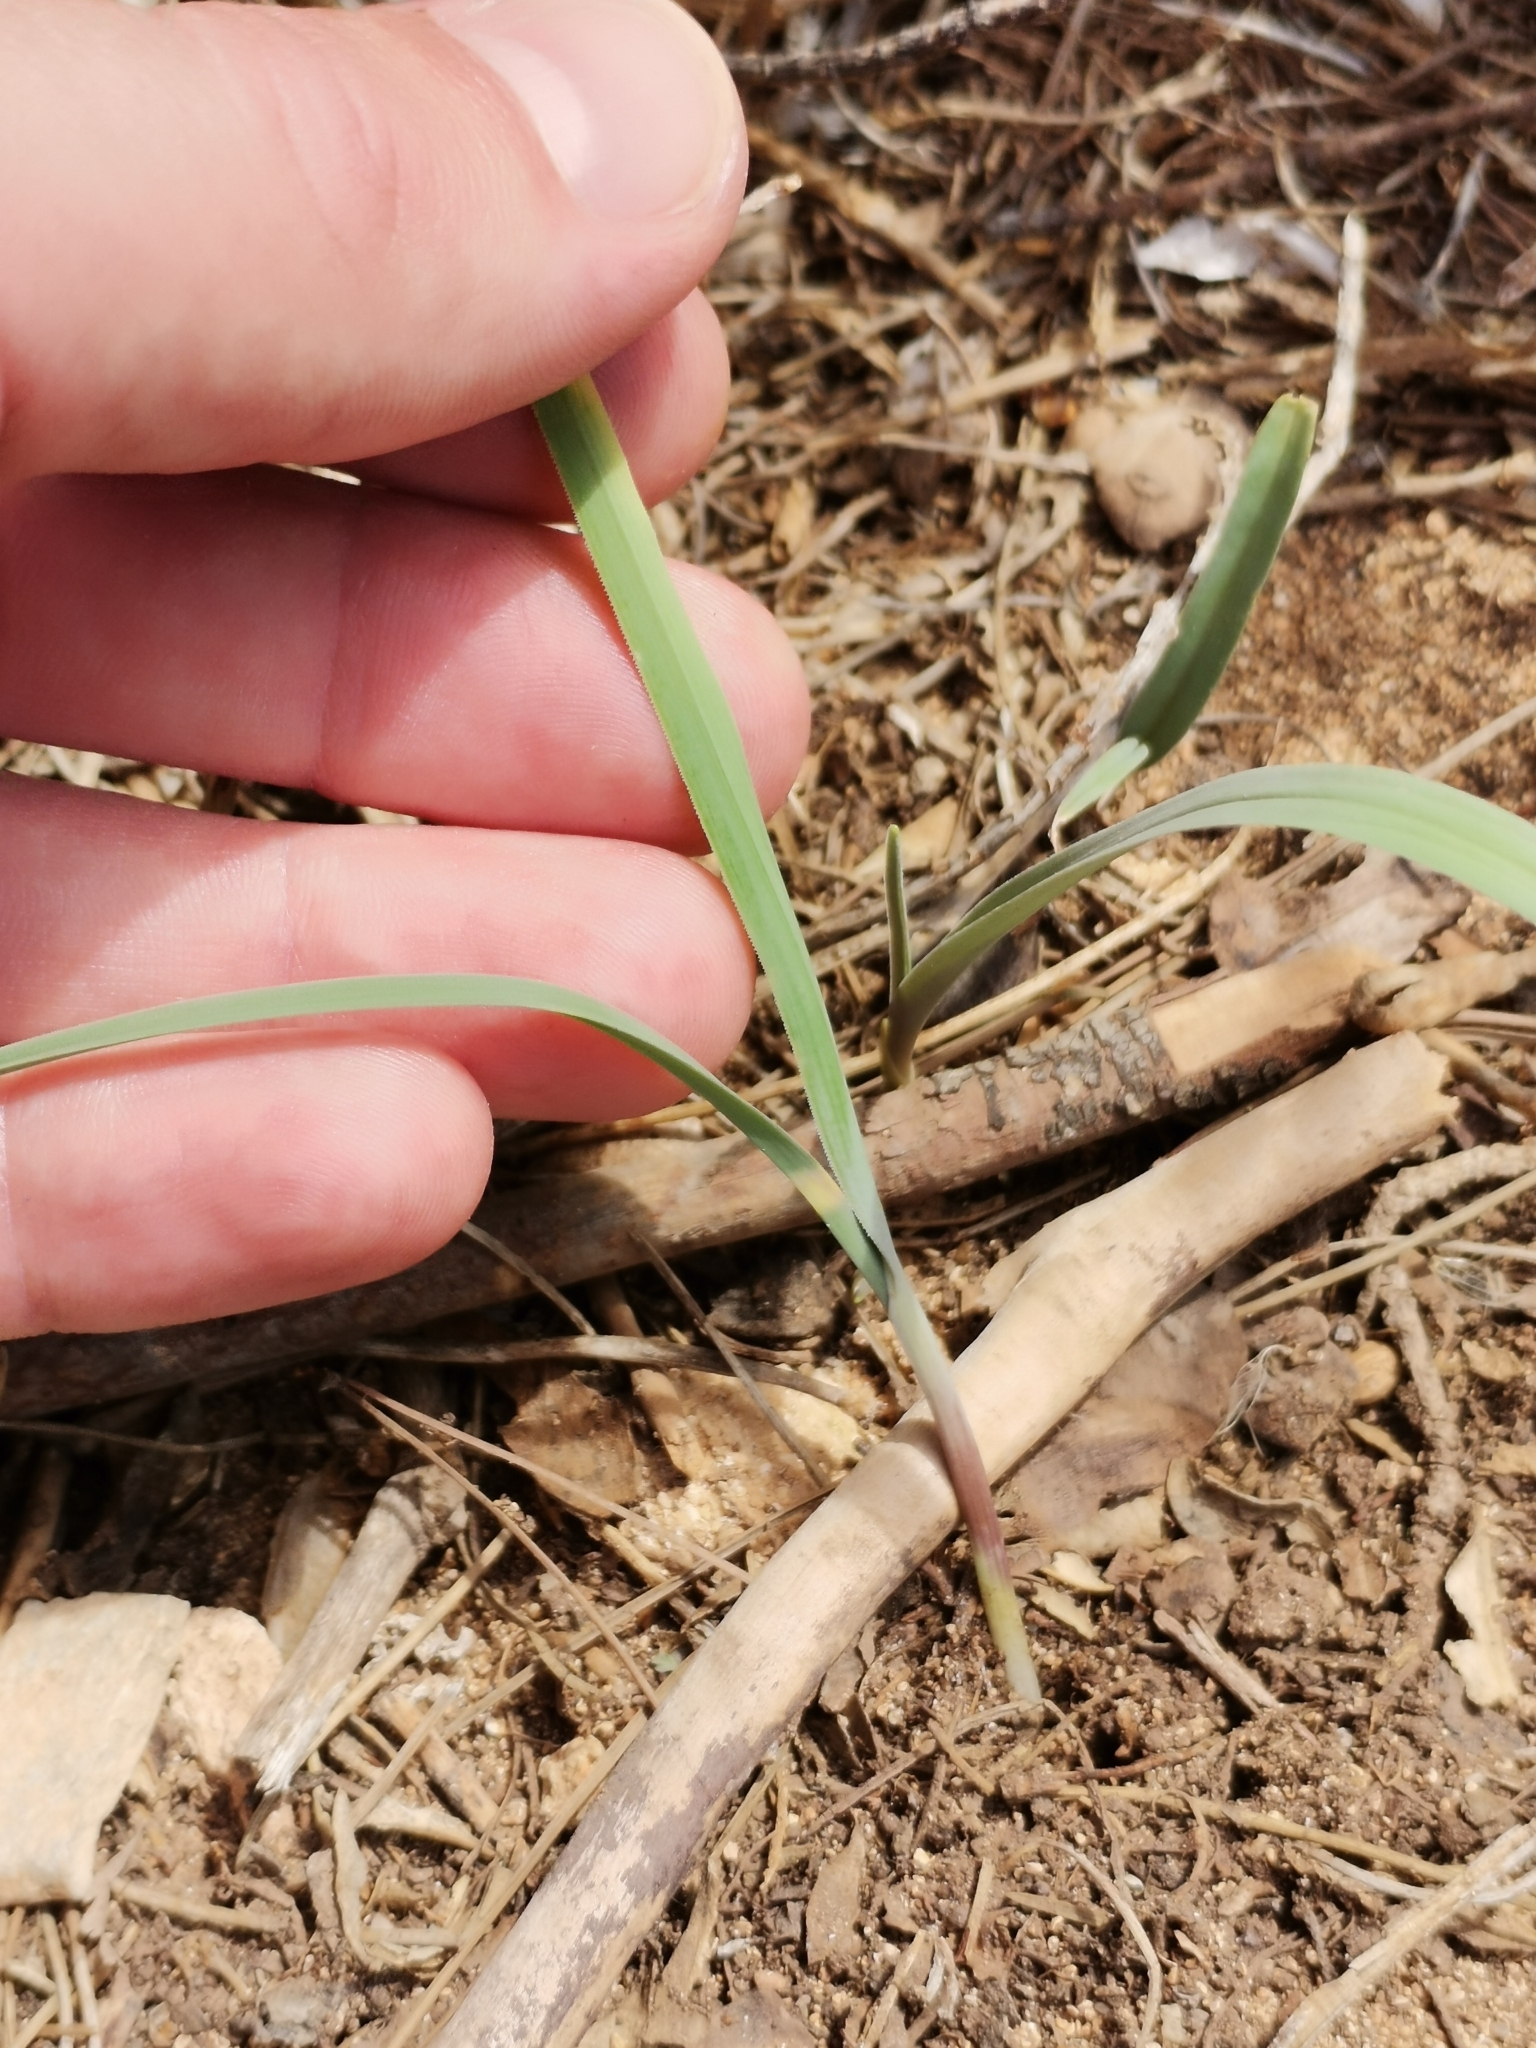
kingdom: Plantae
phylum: Tracheophyta
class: Liliopsida
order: Asparagales
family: Amaryllidaceae
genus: Allium
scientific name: Allium commutatum
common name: Sea garlic
